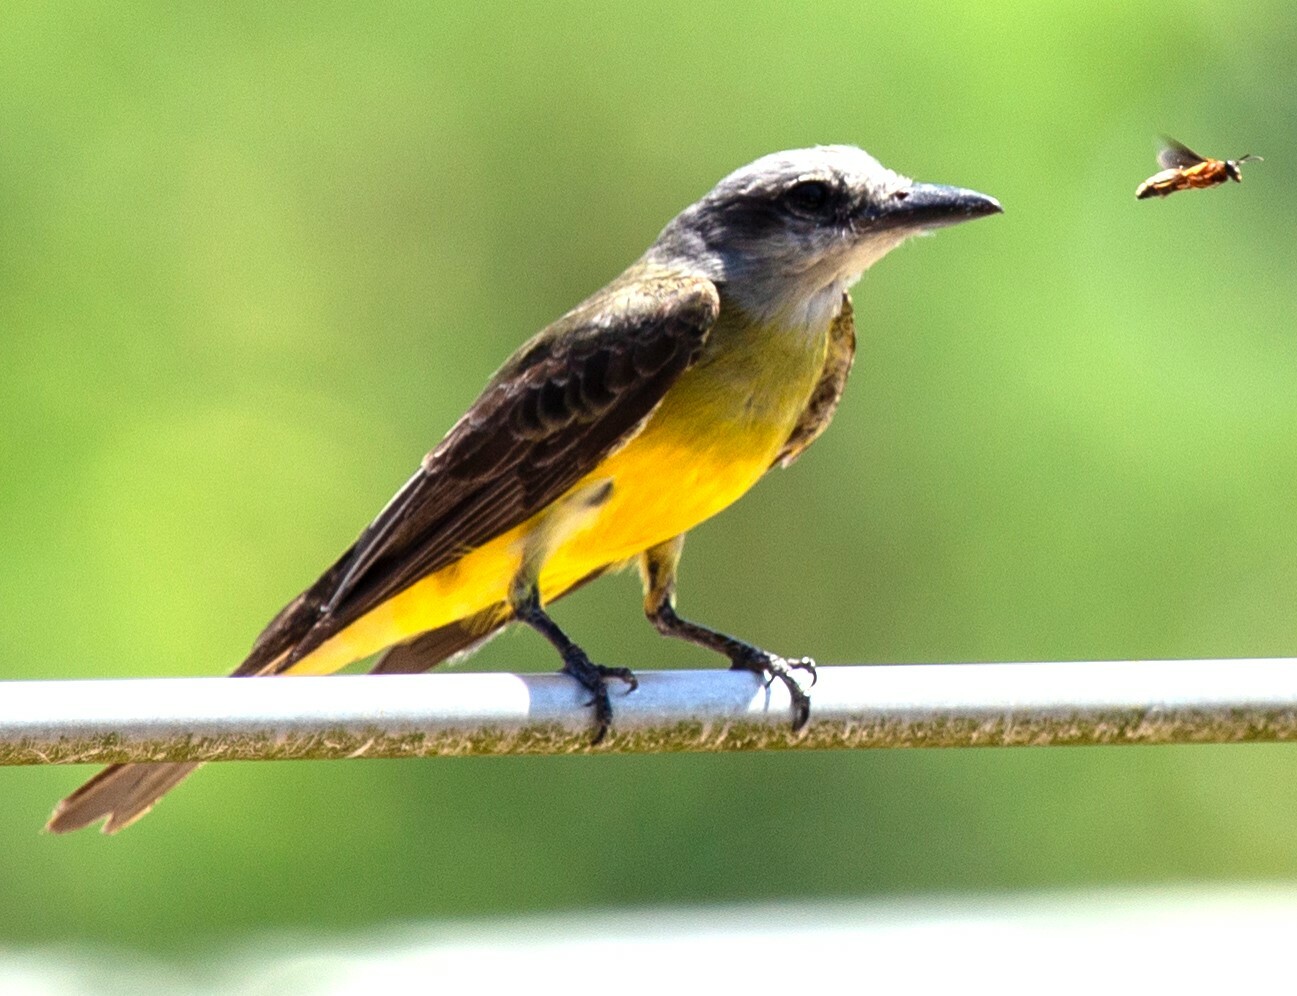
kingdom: Animalia
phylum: Chordata
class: Aves
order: Passeriformes
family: Tyrannidae
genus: Tyrannus
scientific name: Tyrannus melancholicus
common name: Tropical kingbird
